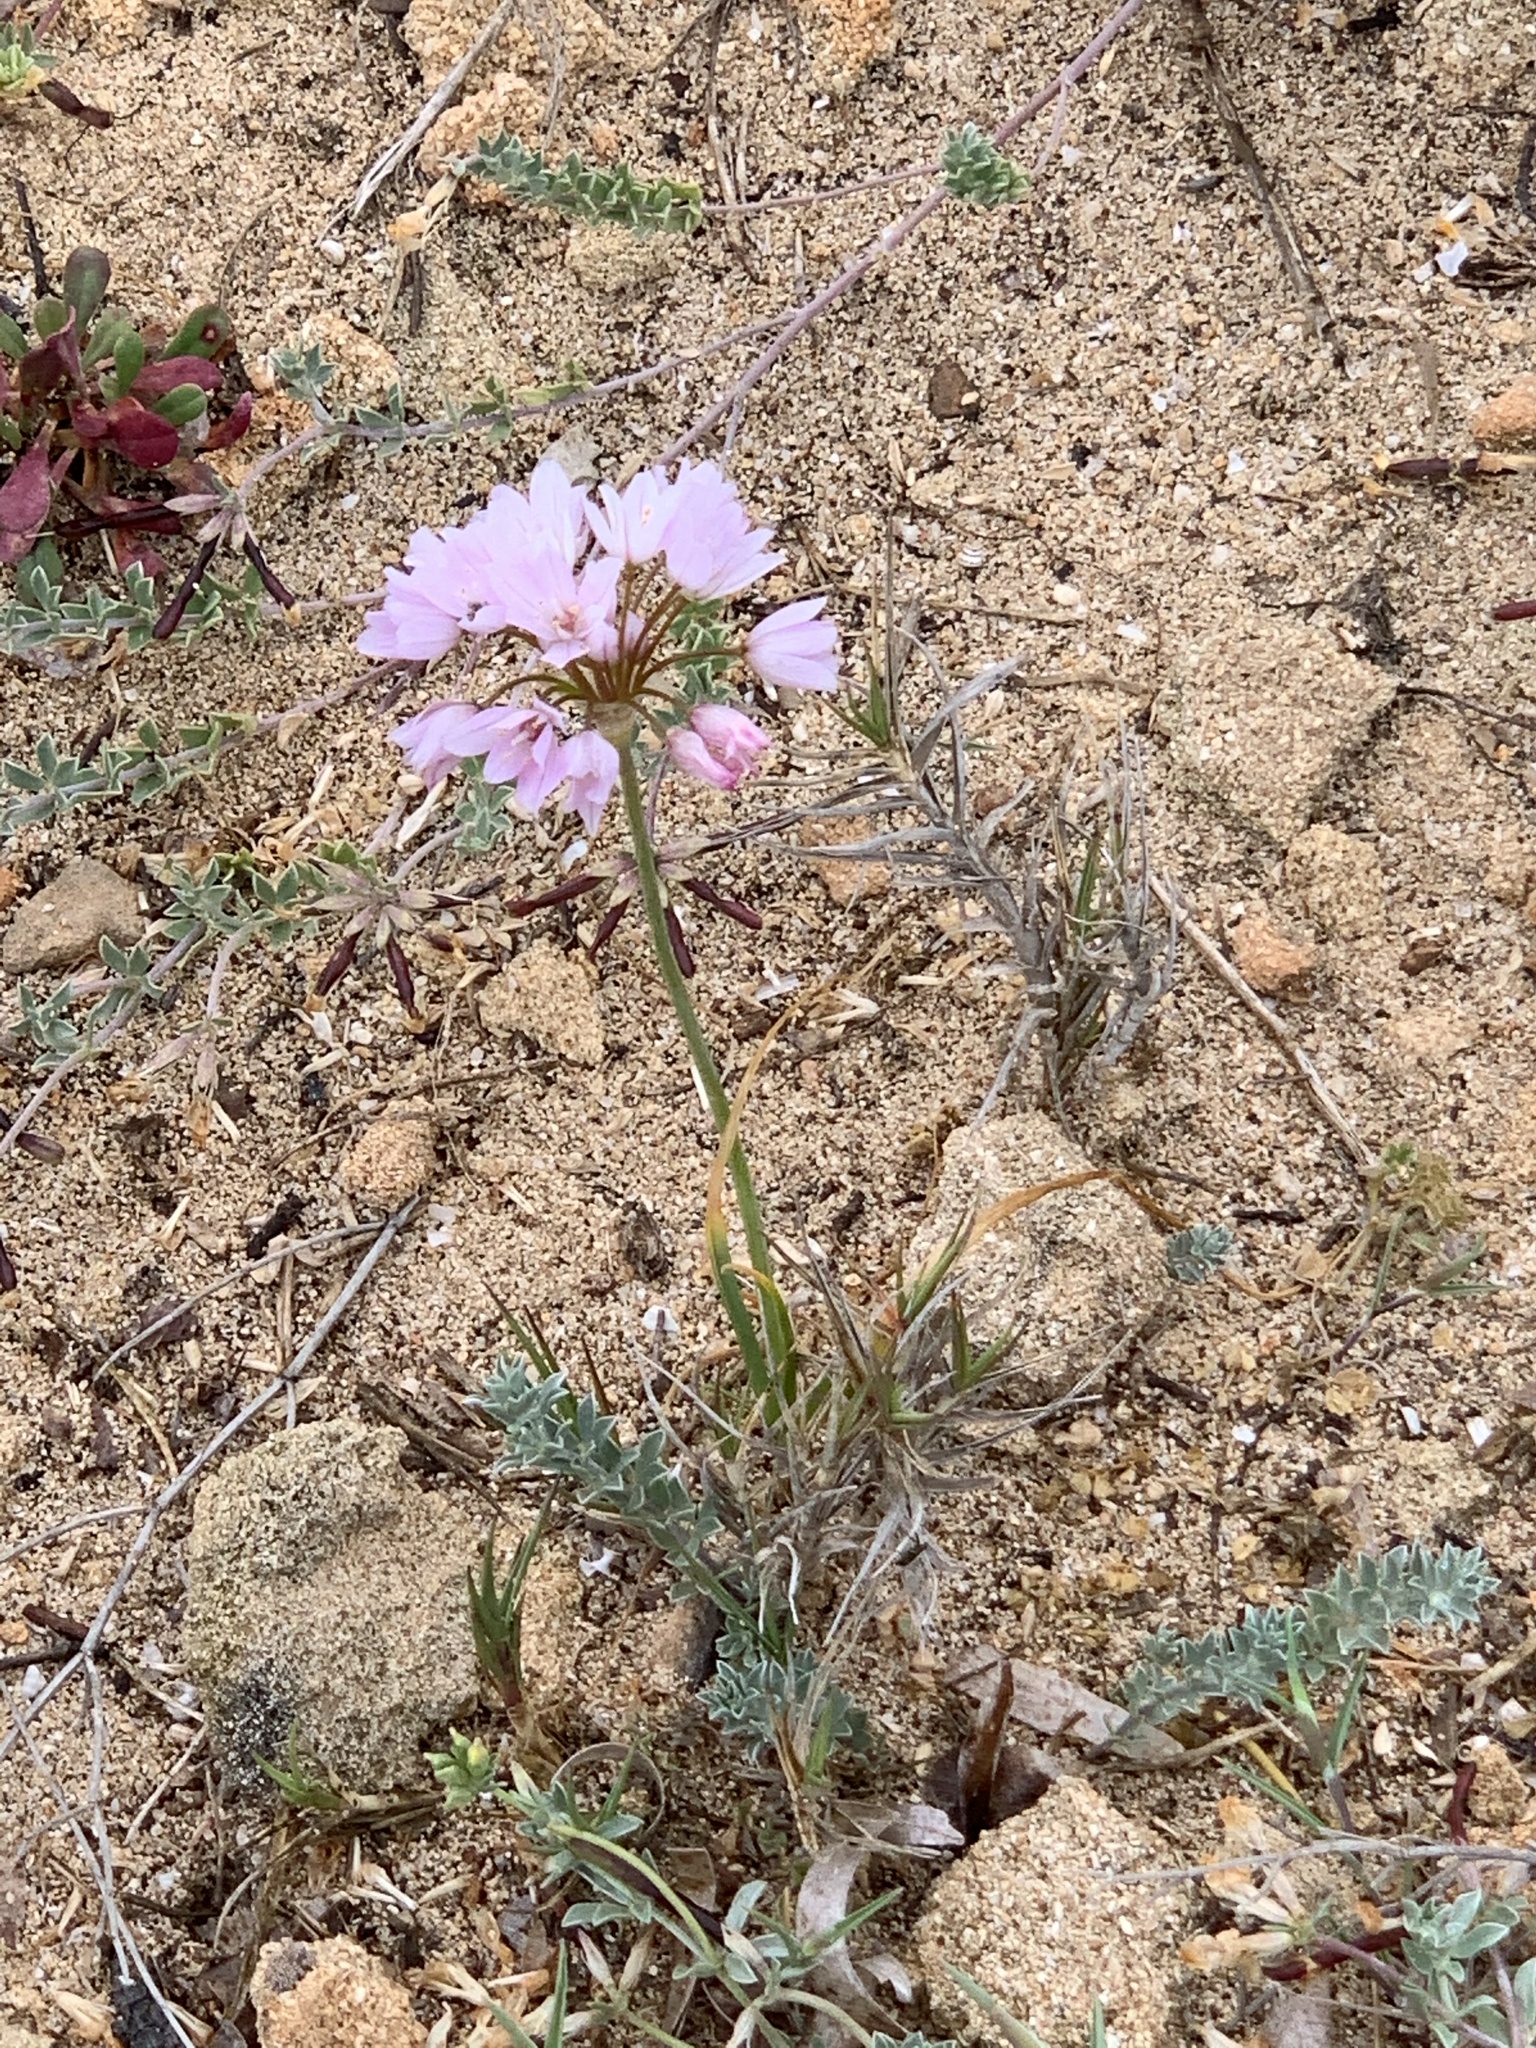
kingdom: Plantae
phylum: Tracheophyta
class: Liliopsida
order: Asparagales
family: Amaryllidaceae
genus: Allium
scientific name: Allium roseum
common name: Rosy garlic
